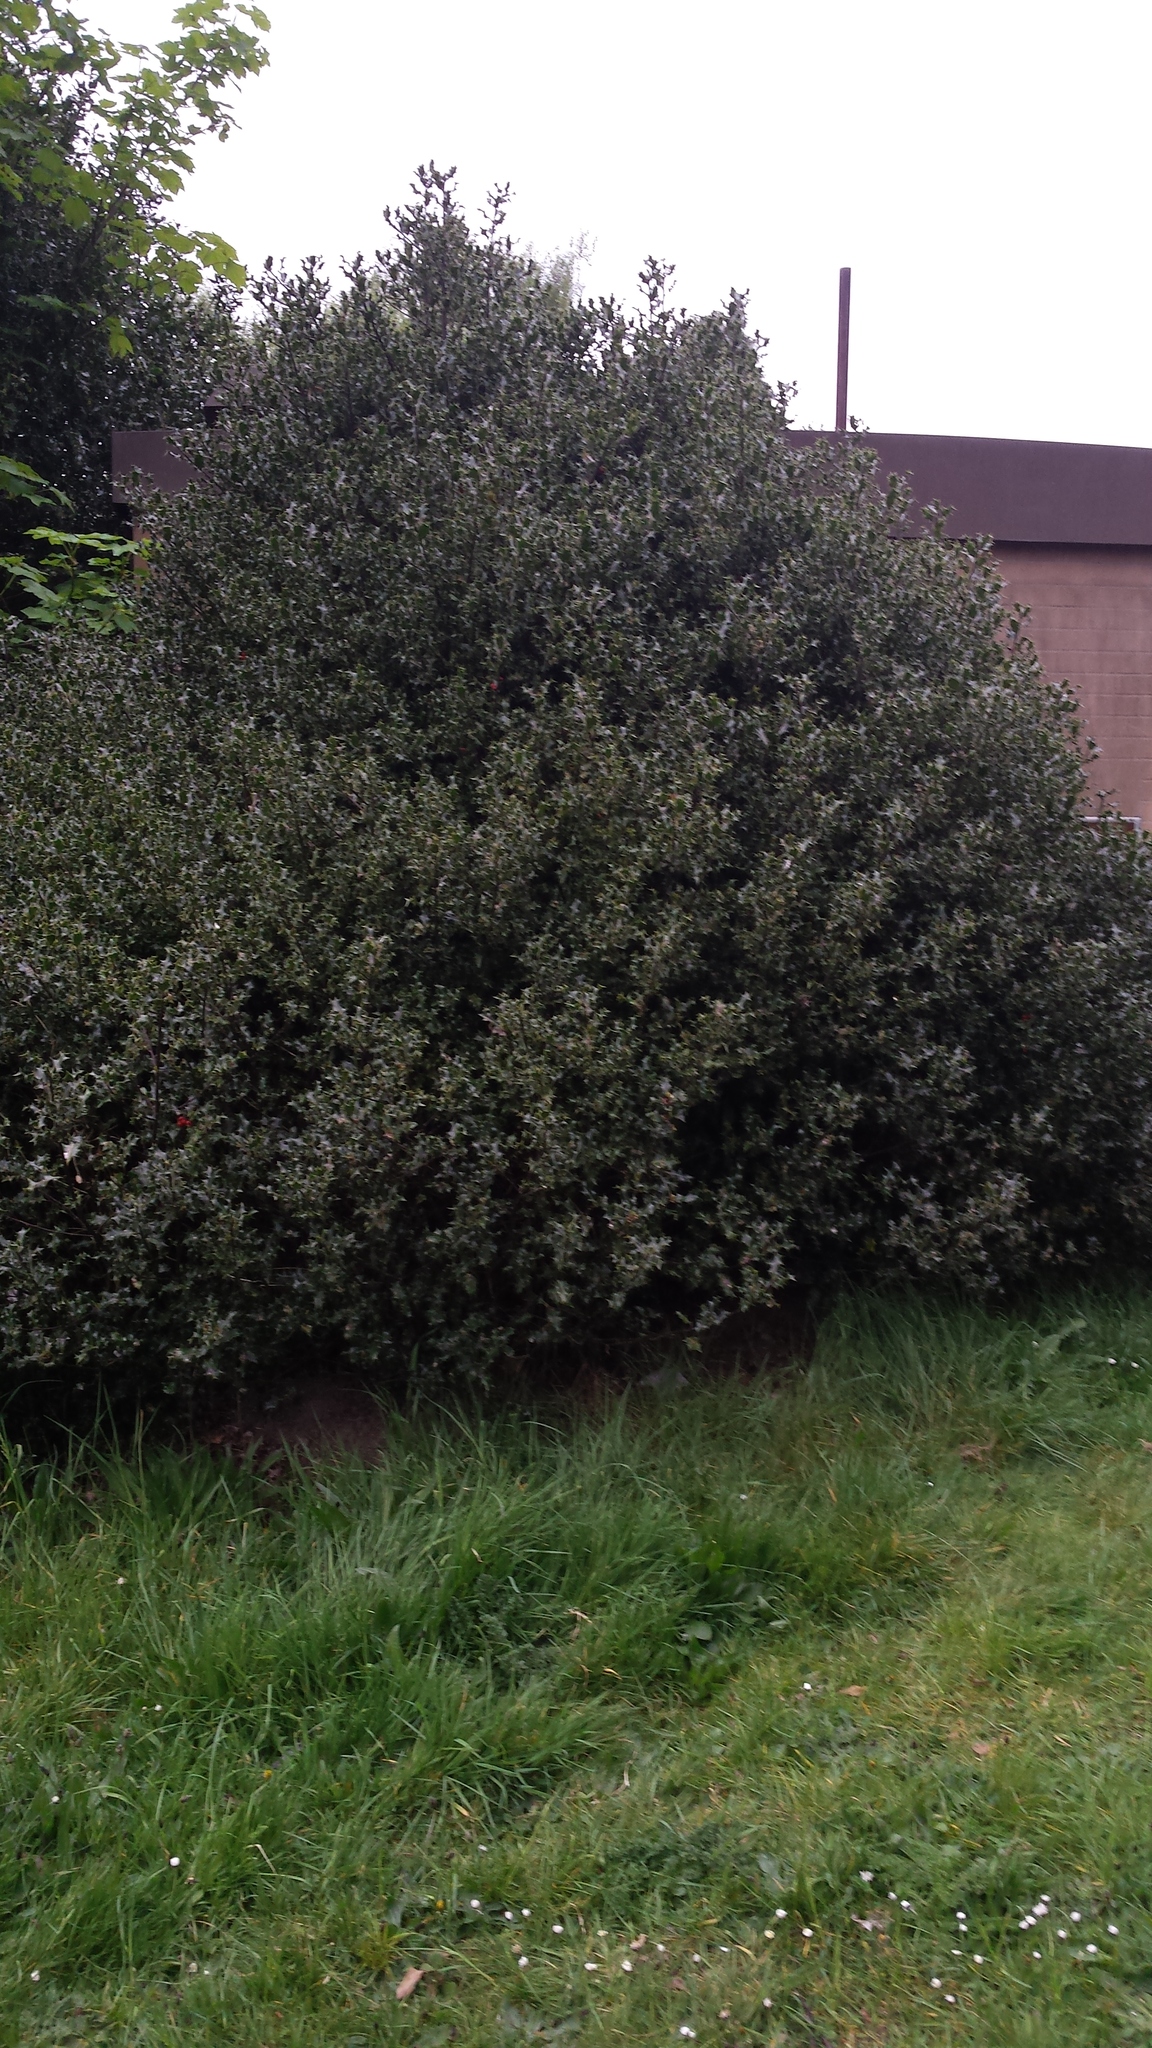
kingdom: Plantae
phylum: Tracheophyta
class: Magnoliopsida
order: Aquifoliales
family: Aquifoliaceae
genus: Ilex
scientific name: Ilex aquifolium
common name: English holly
